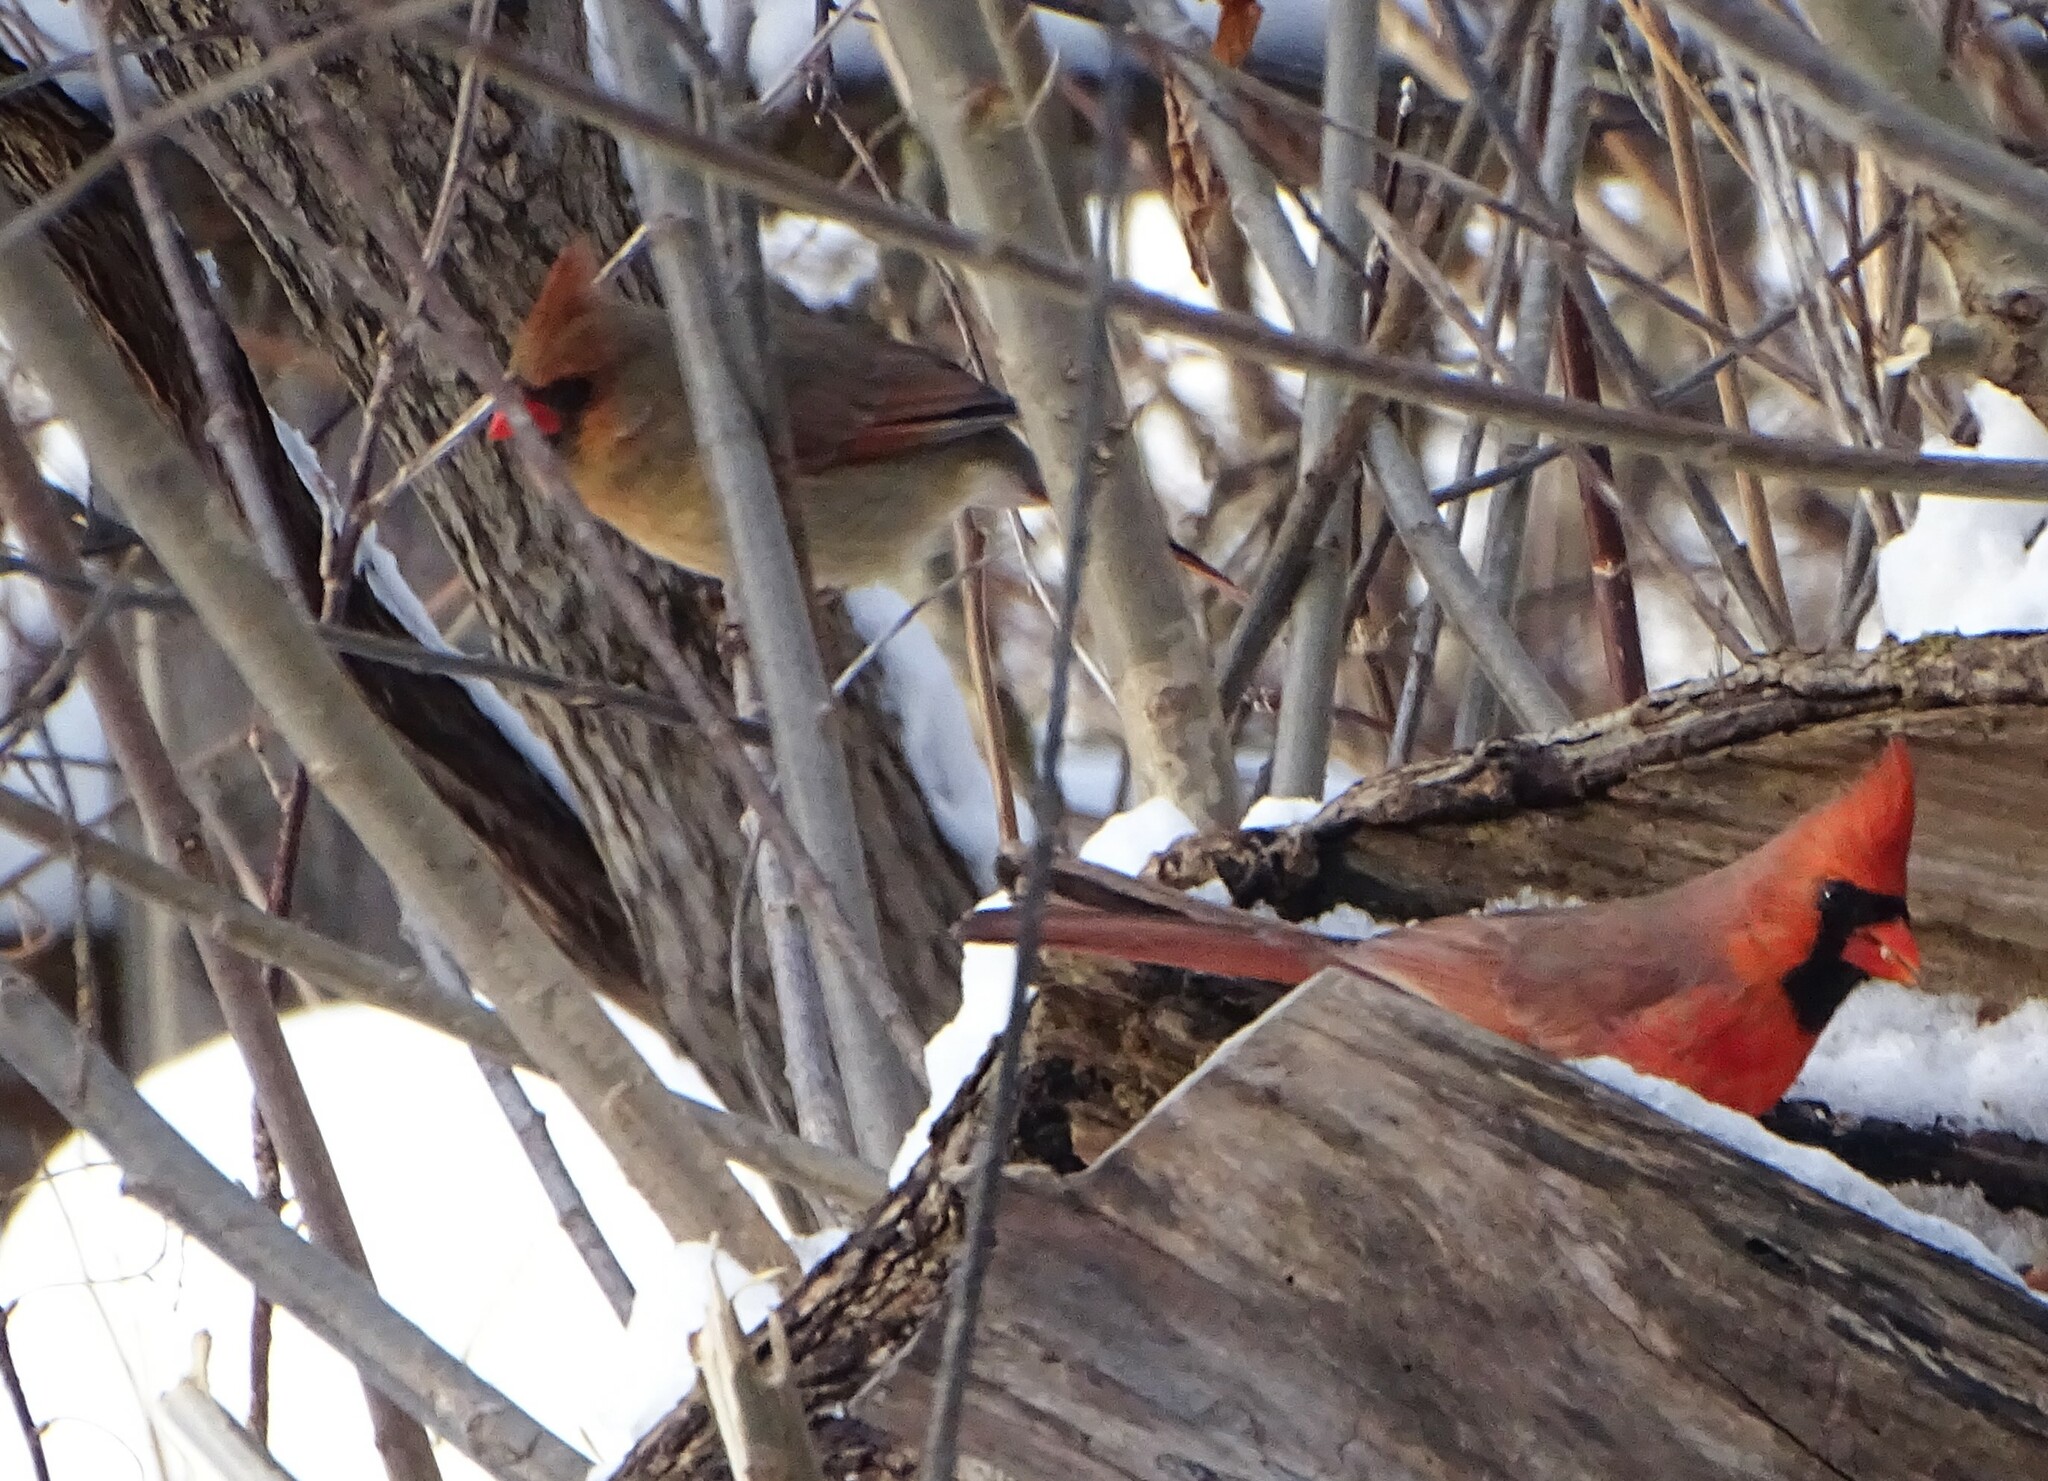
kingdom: Animalia
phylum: Chordata
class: Aves
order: Passeriformes
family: Cardinalidae
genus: Cardinalis
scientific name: Cardinalis cardinalis
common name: Northern cardinal
